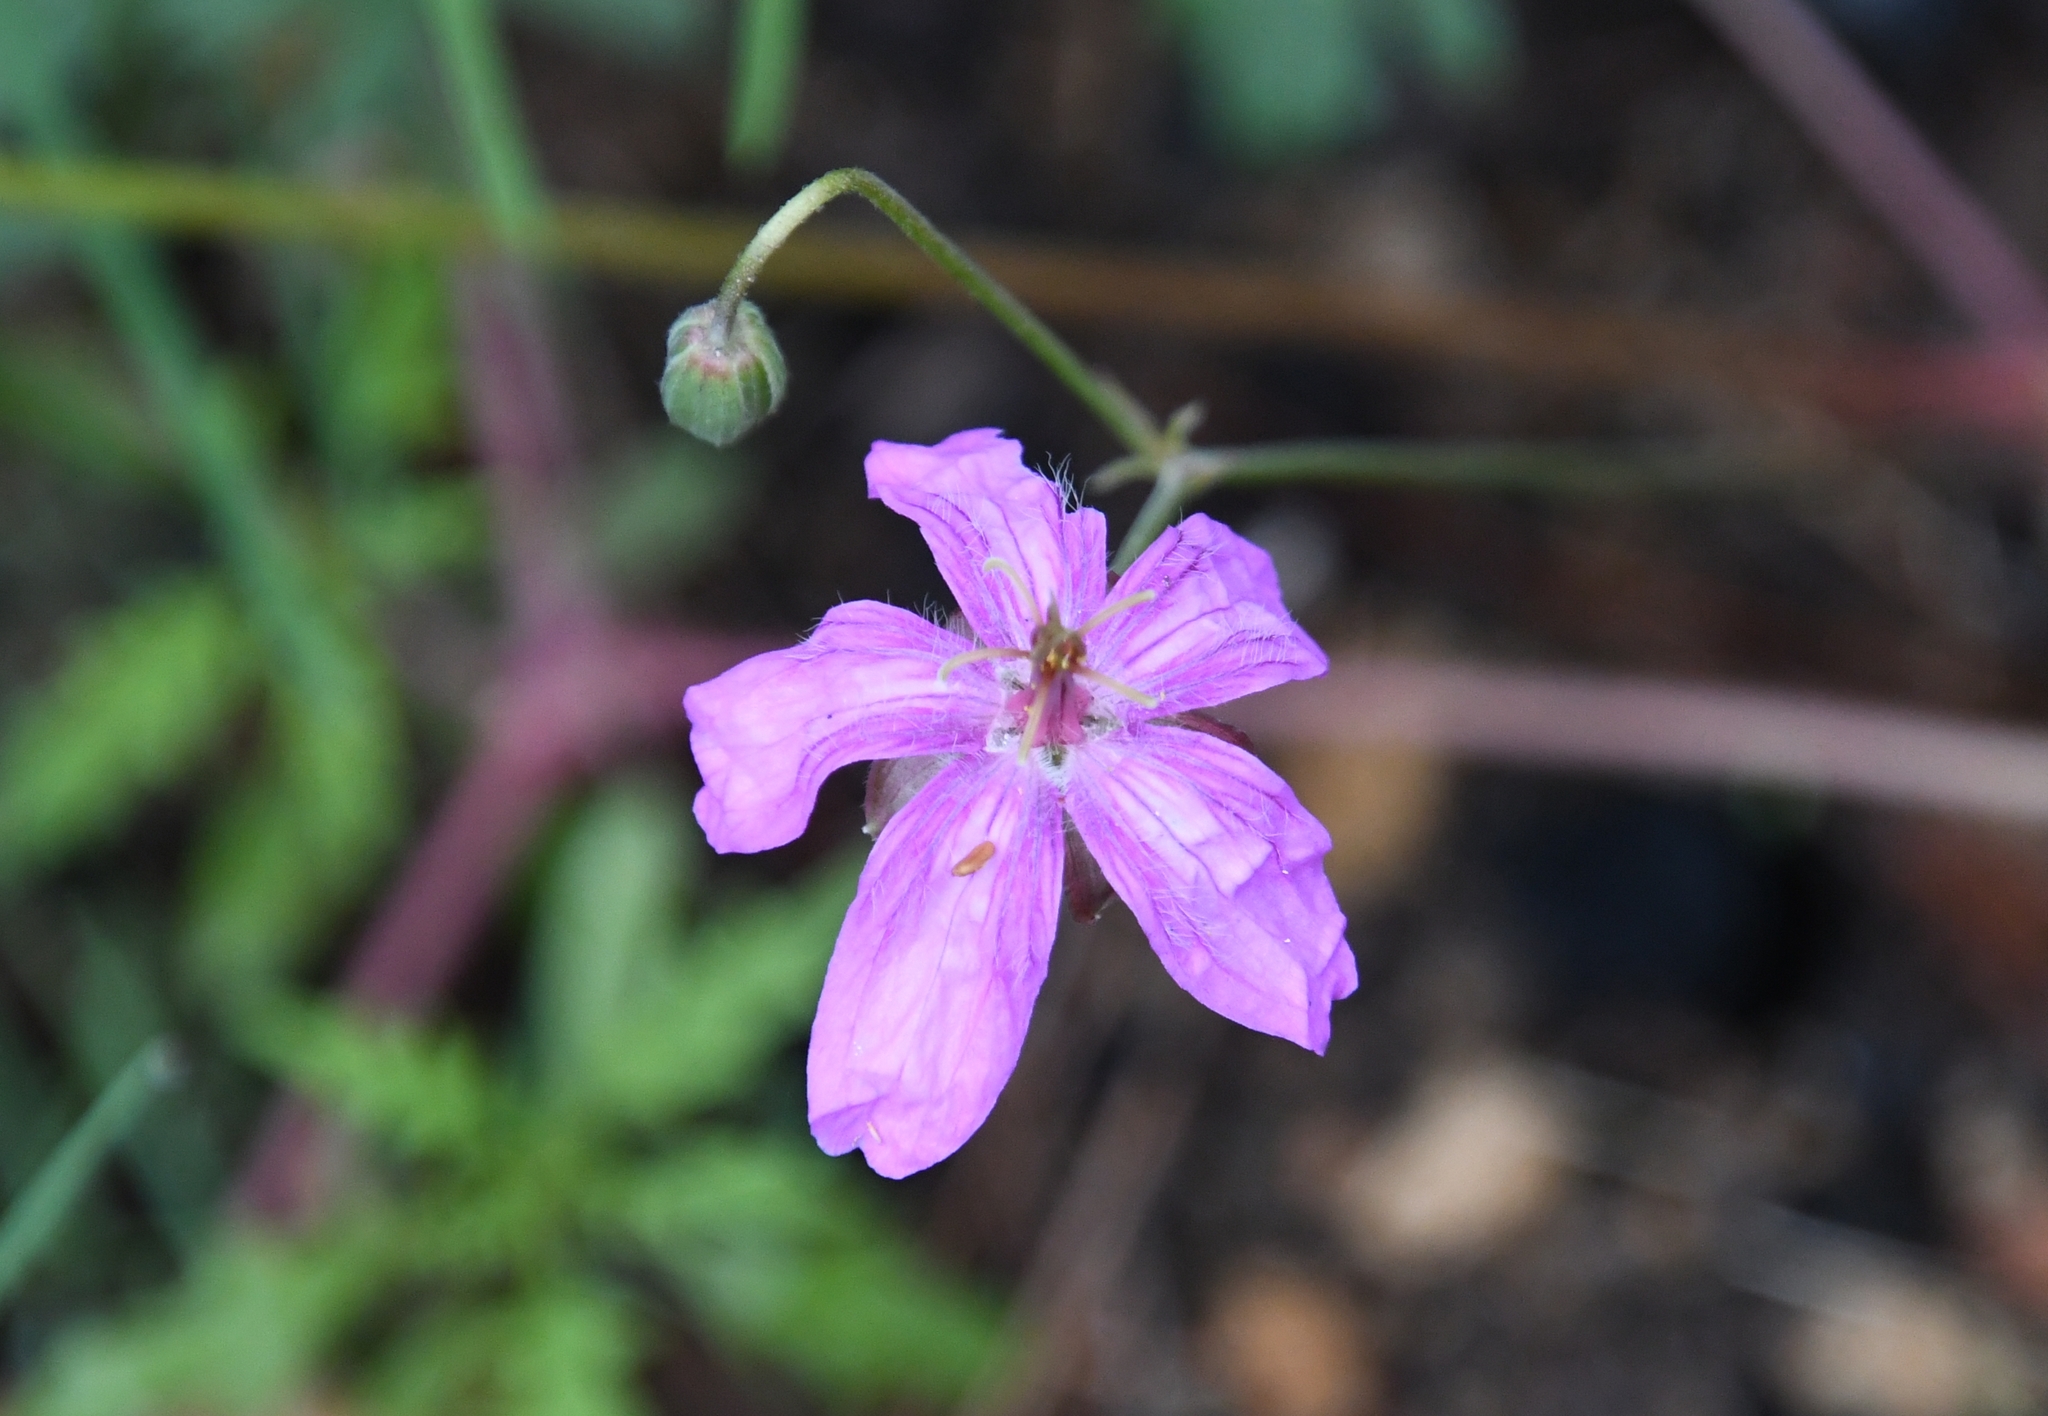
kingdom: Plantae
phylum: Tracheophyta
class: Magnoliopsida
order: Geraniales
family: Geraniaceae
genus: Geranium
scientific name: Geranium caespitosum
